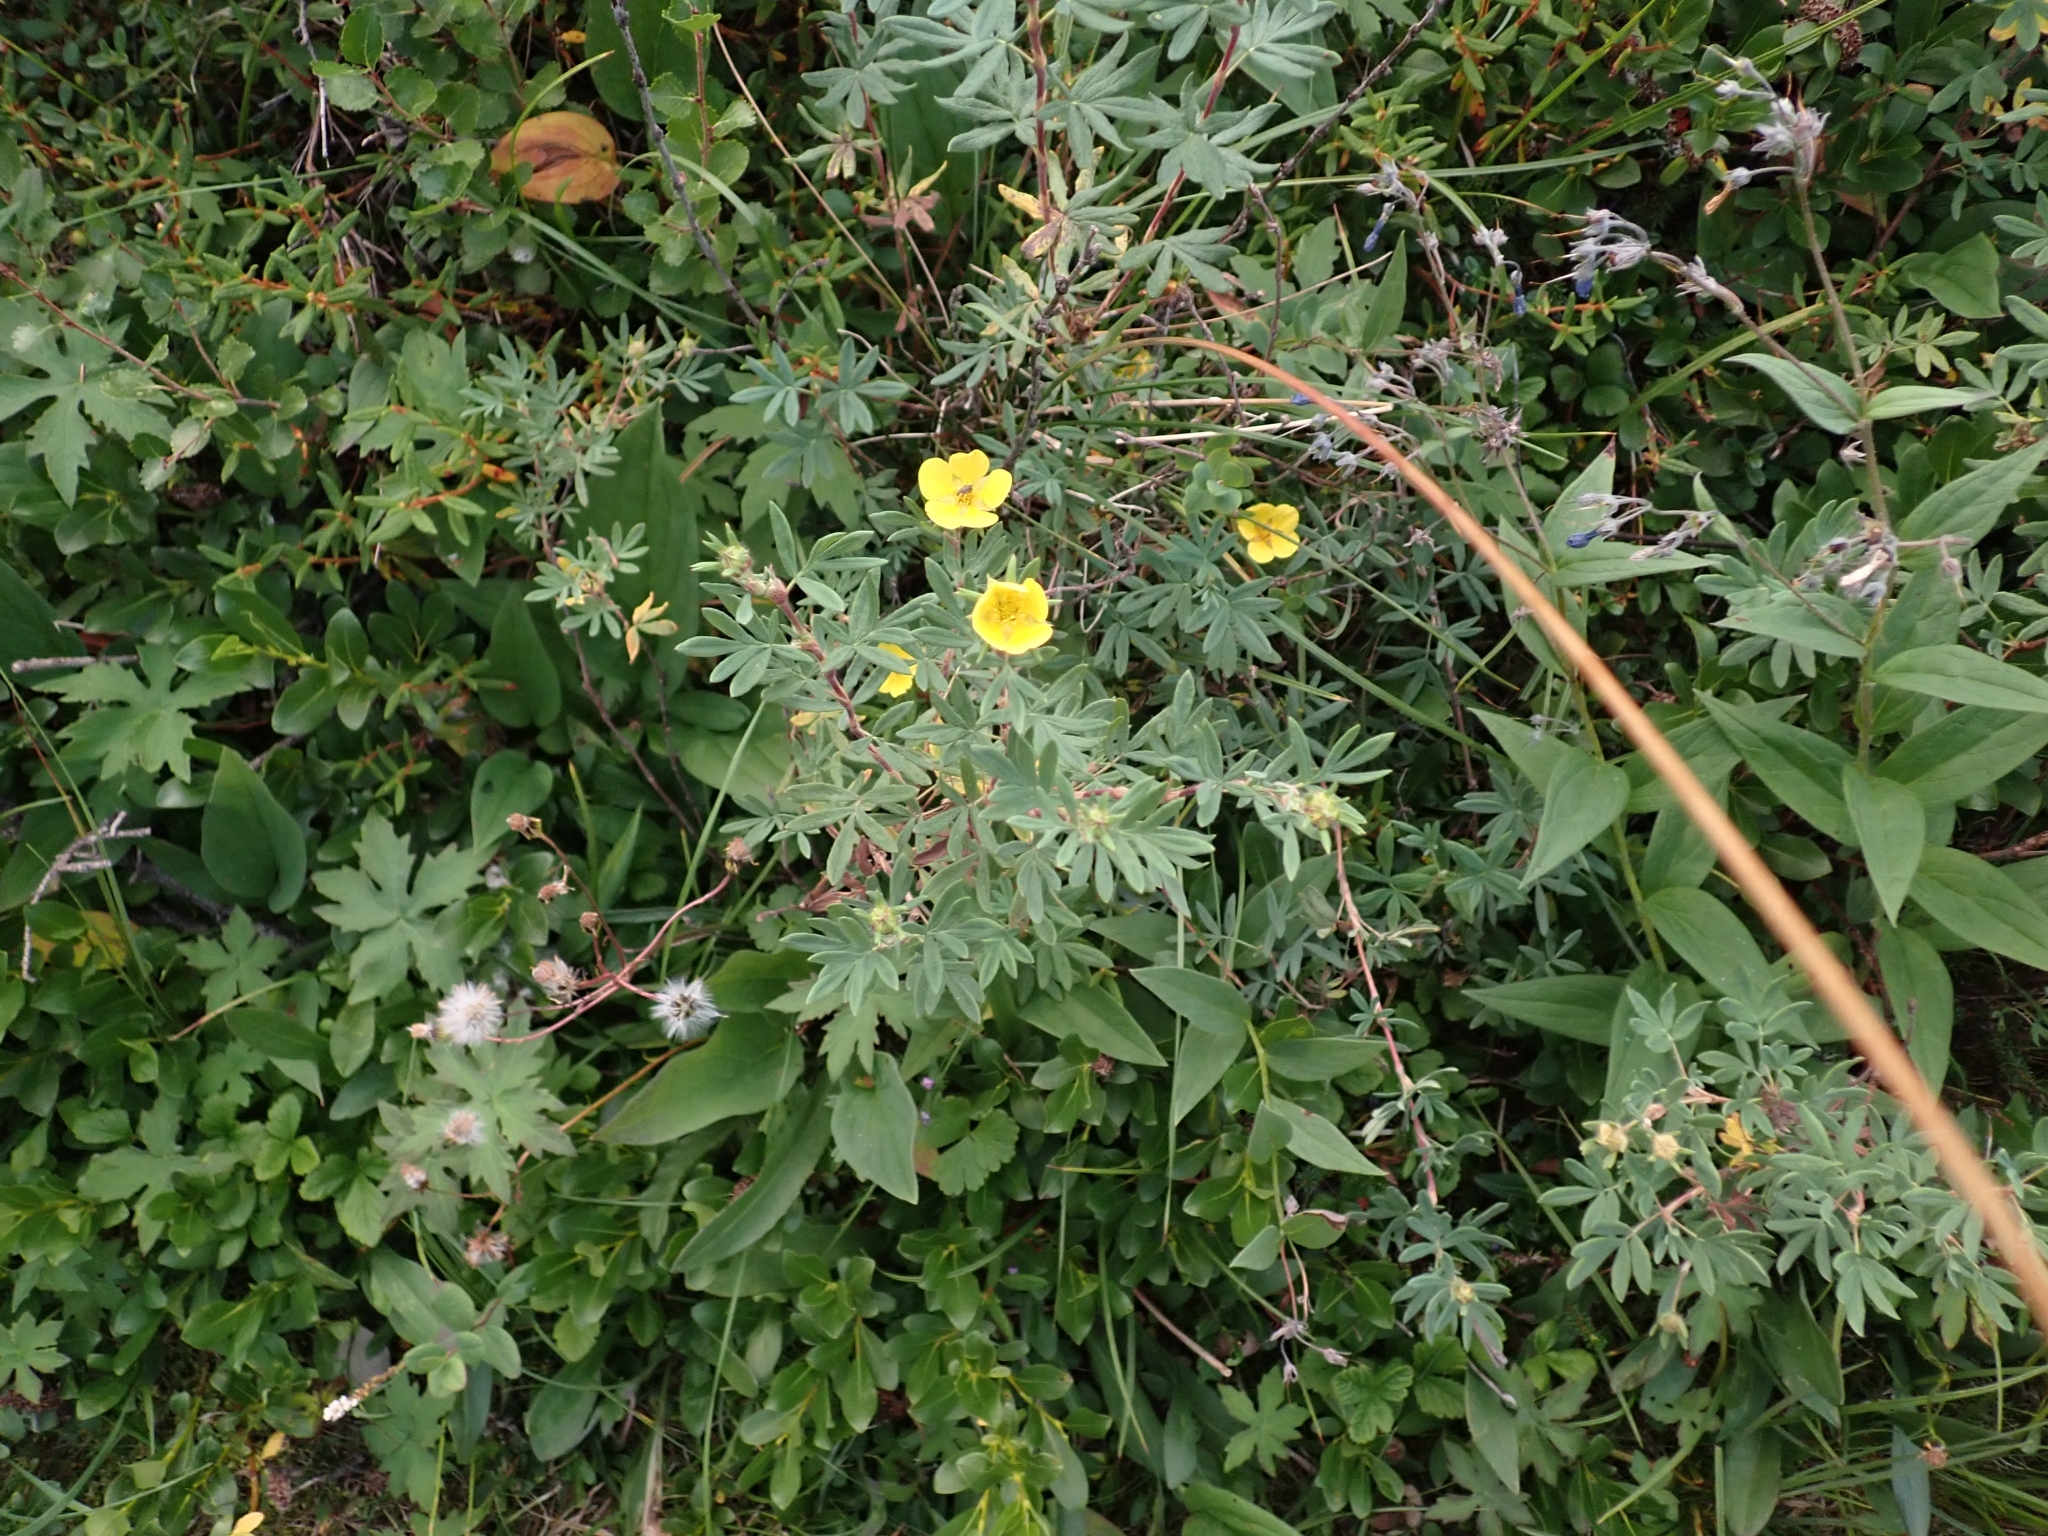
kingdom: Plantae
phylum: Tracheophyta
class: Magnoliopsida
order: Rosales
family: Rosaceae
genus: Dasiphora
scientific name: Dasiphora fruticosa
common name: Shrubby cinquefoil
